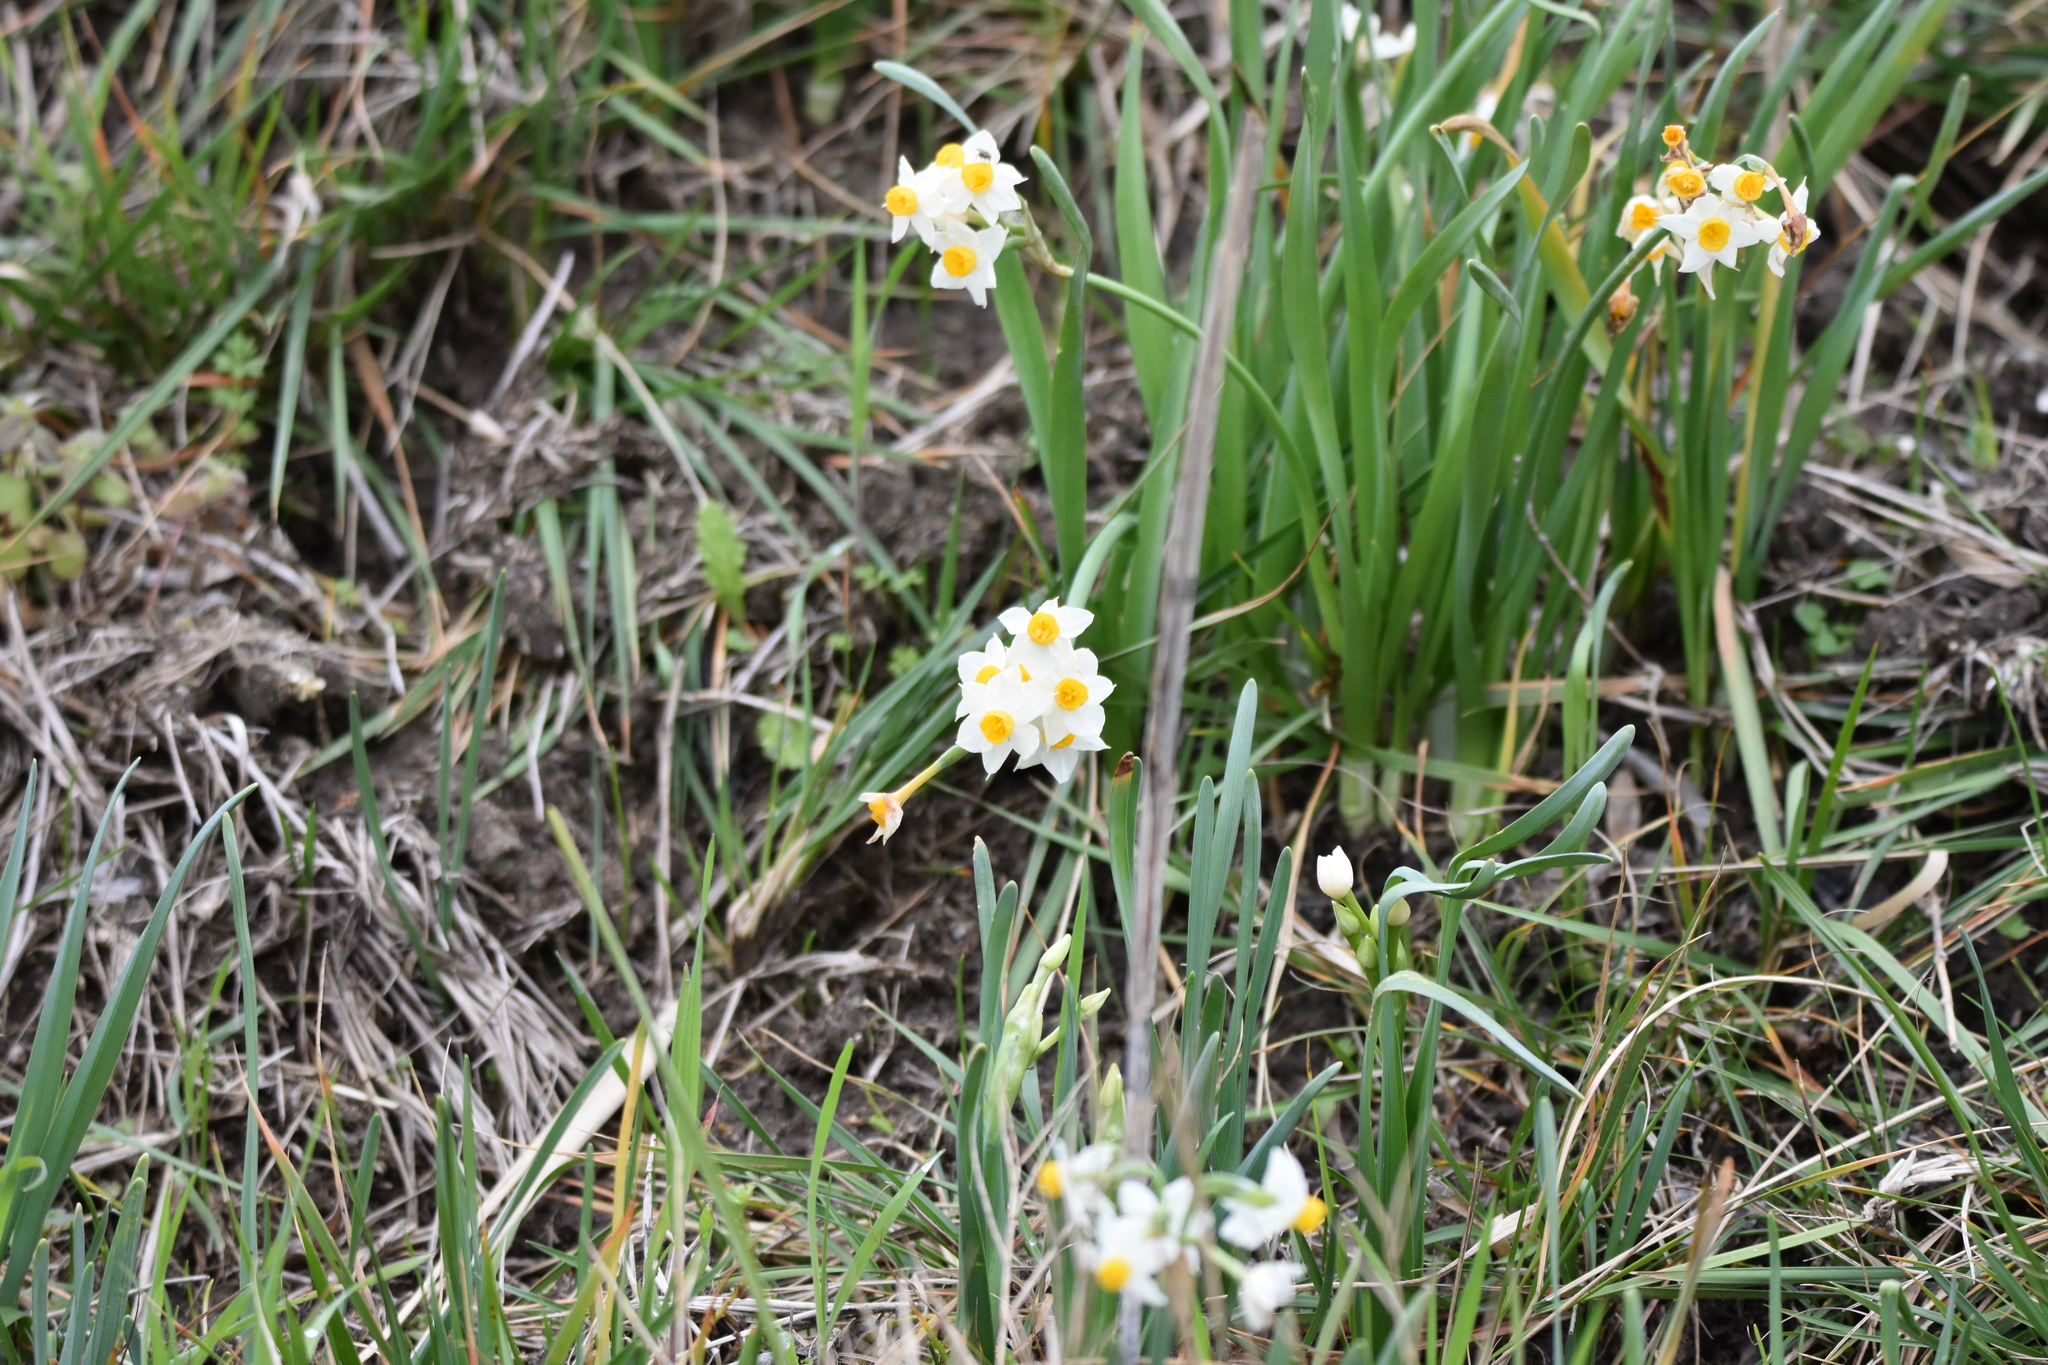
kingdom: Plantae
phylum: Tracheophyta
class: Liliopsida
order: Asparagales
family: Amaryllidaceae
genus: Narcissus
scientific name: Narcissus tazetta
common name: Bunch-flowered daffodil
